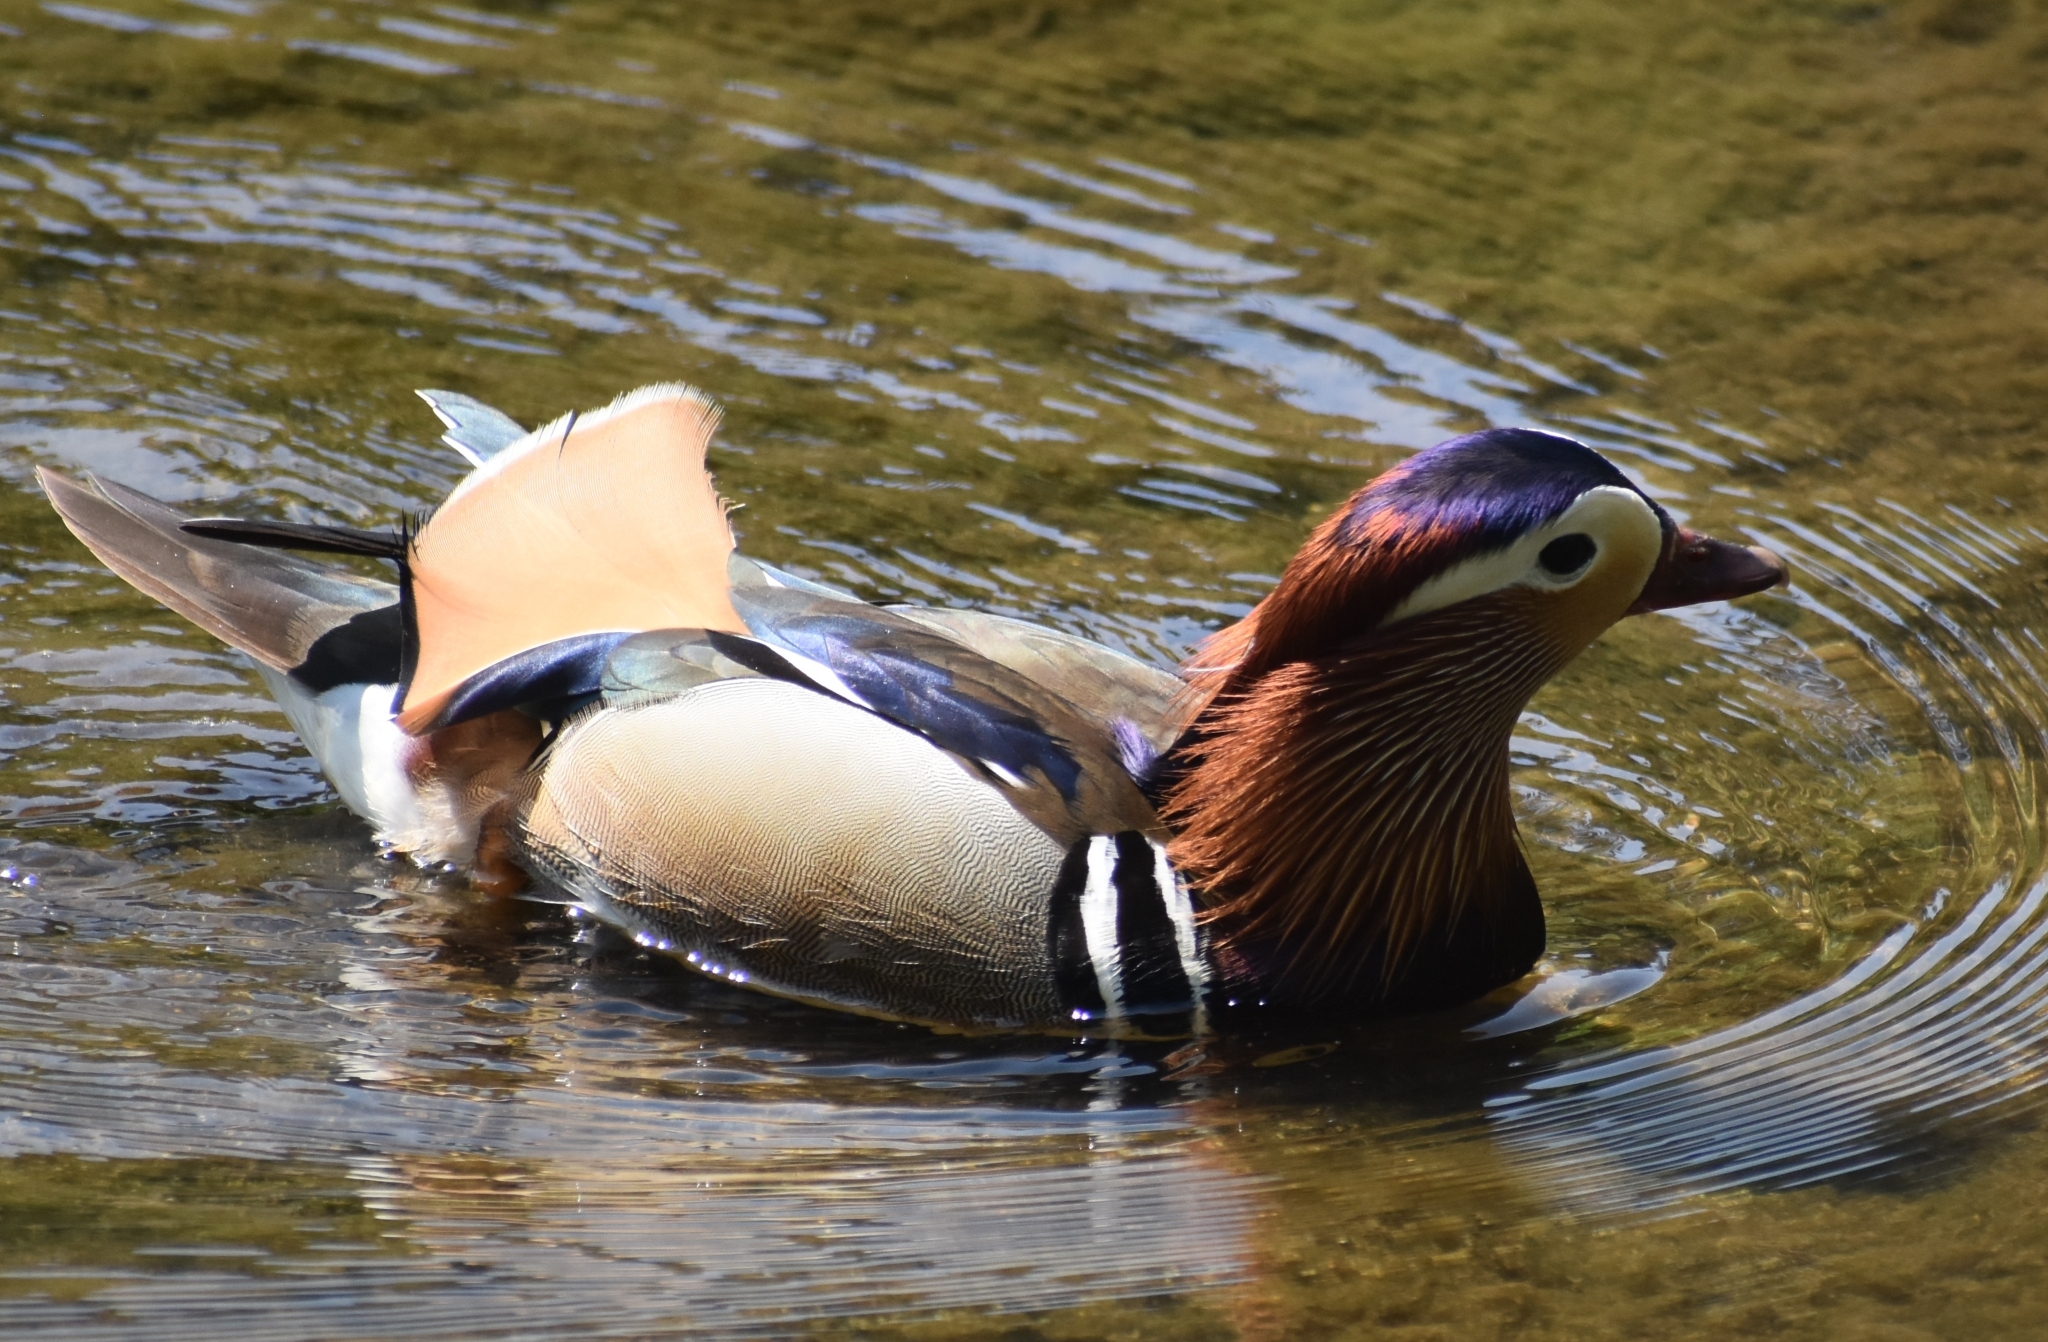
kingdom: Animalia
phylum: Chordata
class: Aves
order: Anseriformes
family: Anatidae
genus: Aix
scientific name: Aix galericulata
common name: Mandarin duck
